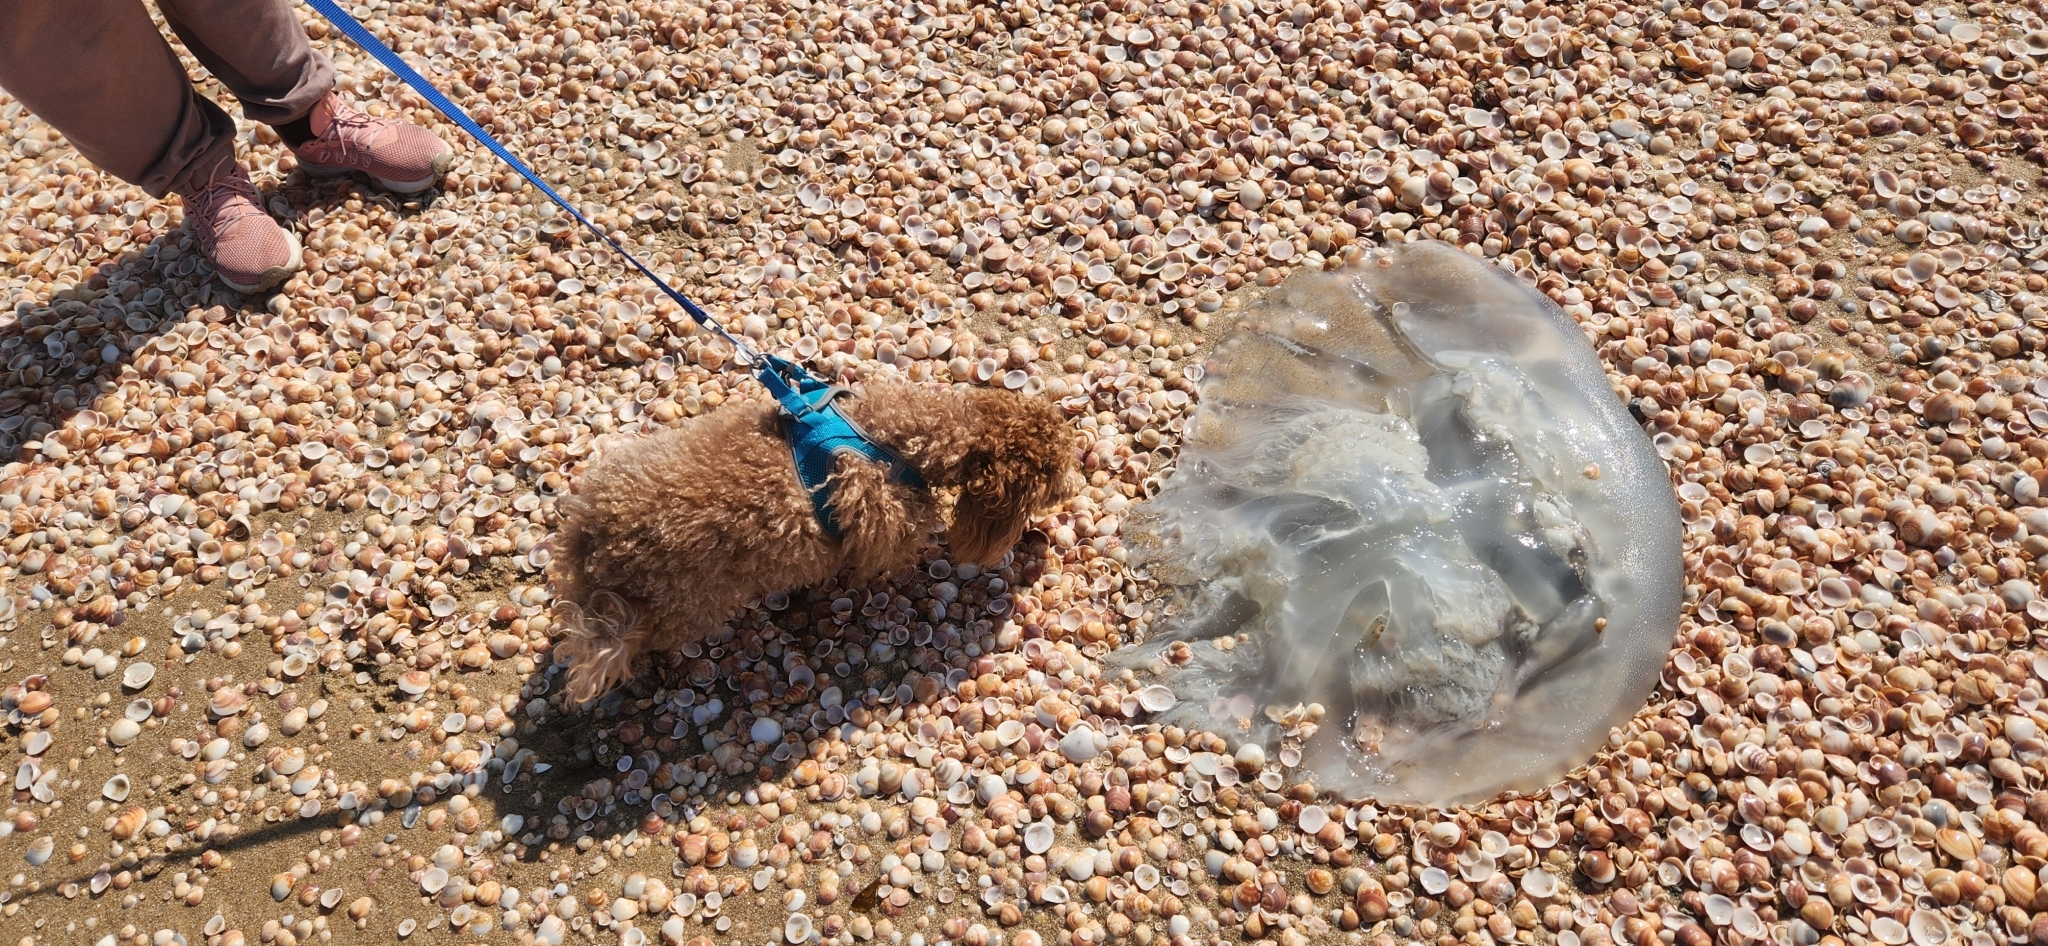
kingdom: Animalia
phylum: Cnidaria
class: Scyphozoa
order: Rhizostomeae
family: Rhizostomatidae
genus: Rhopilema
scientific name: Rhopilema nomadica
